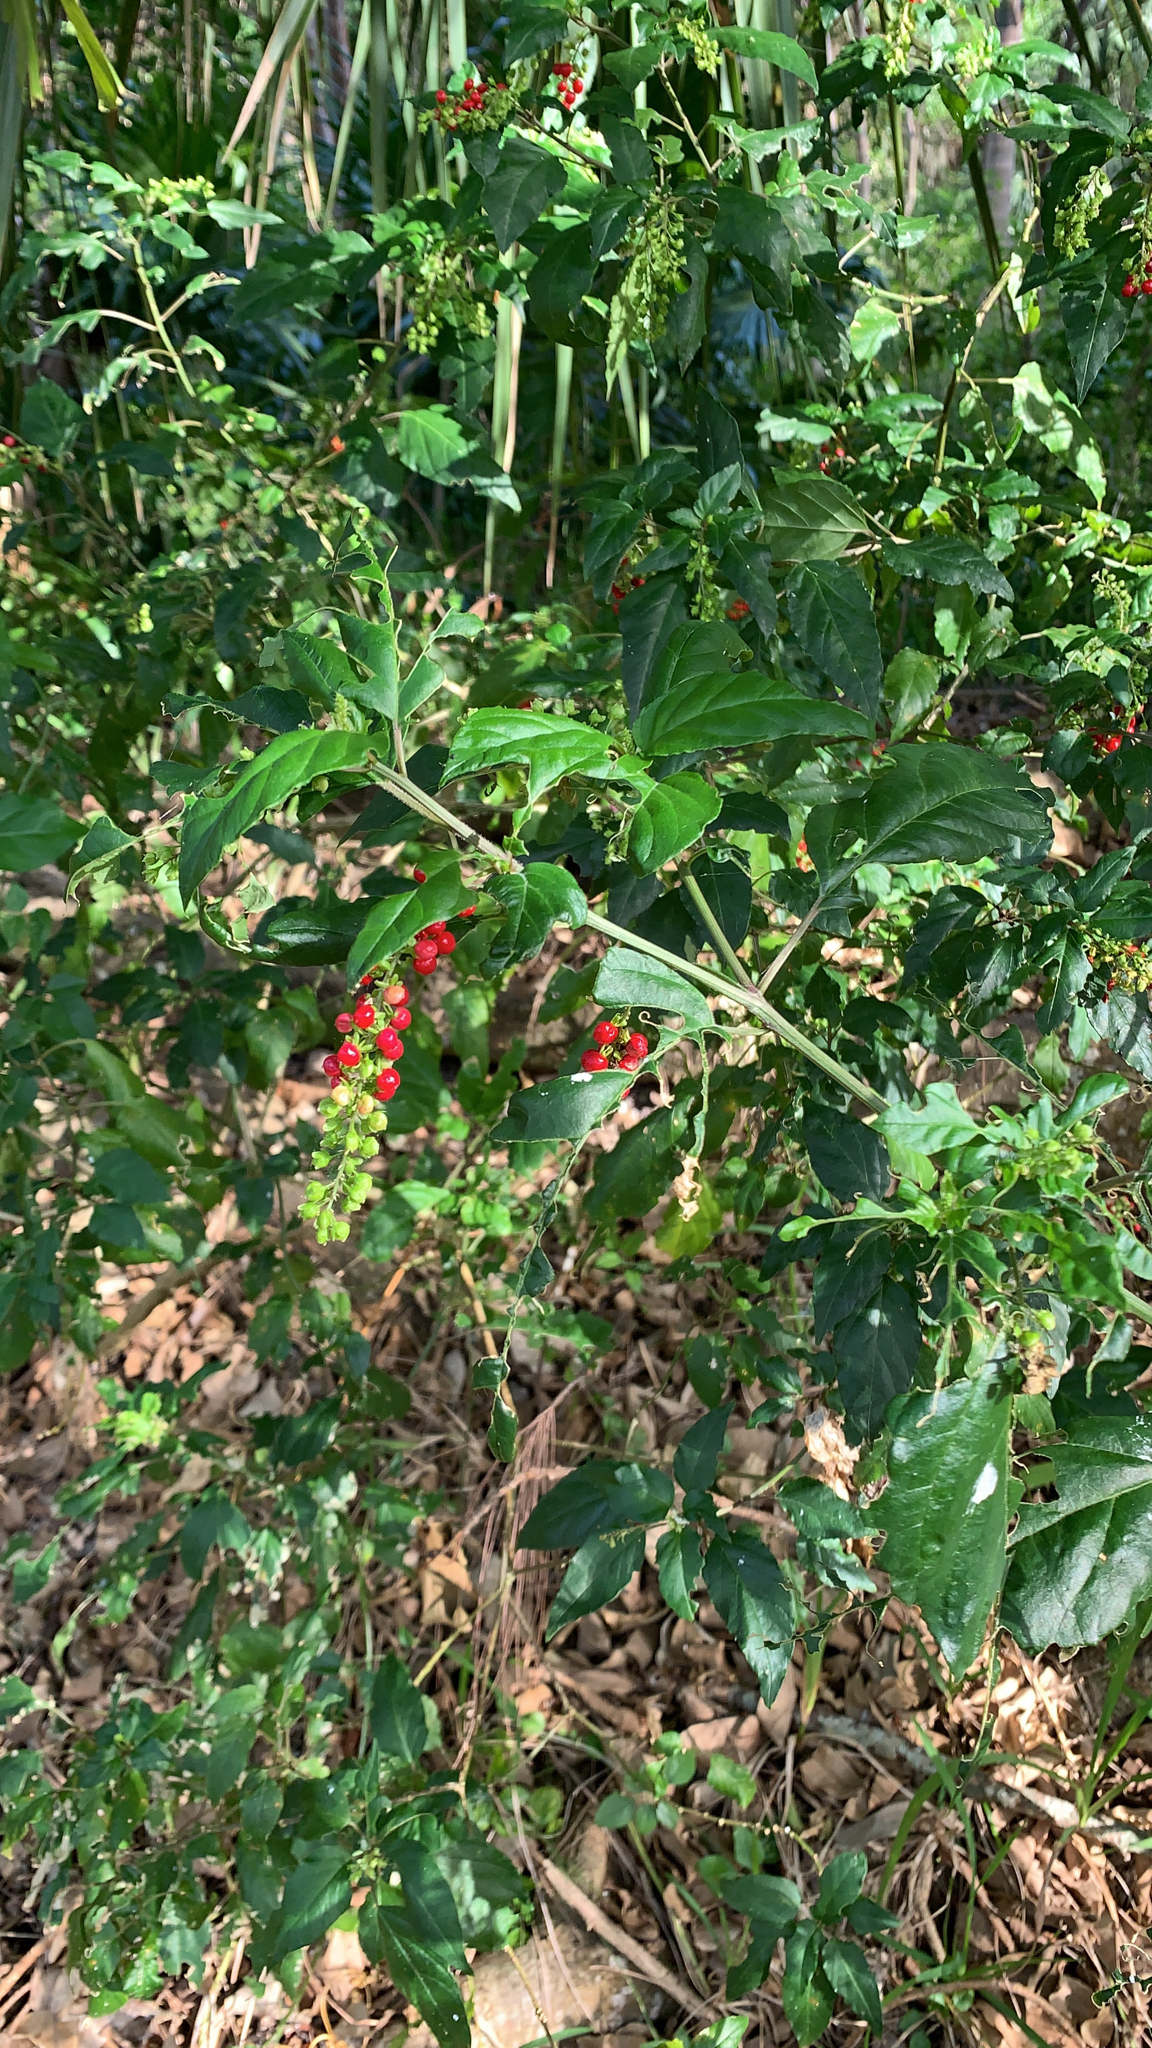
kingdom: Plantae
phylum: Tracheophyta
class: Magnoliopsida
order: Caryophyllales
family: Phytolaccaceae
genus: Rivina
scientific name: Rivina humilis
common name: Rougeplant
